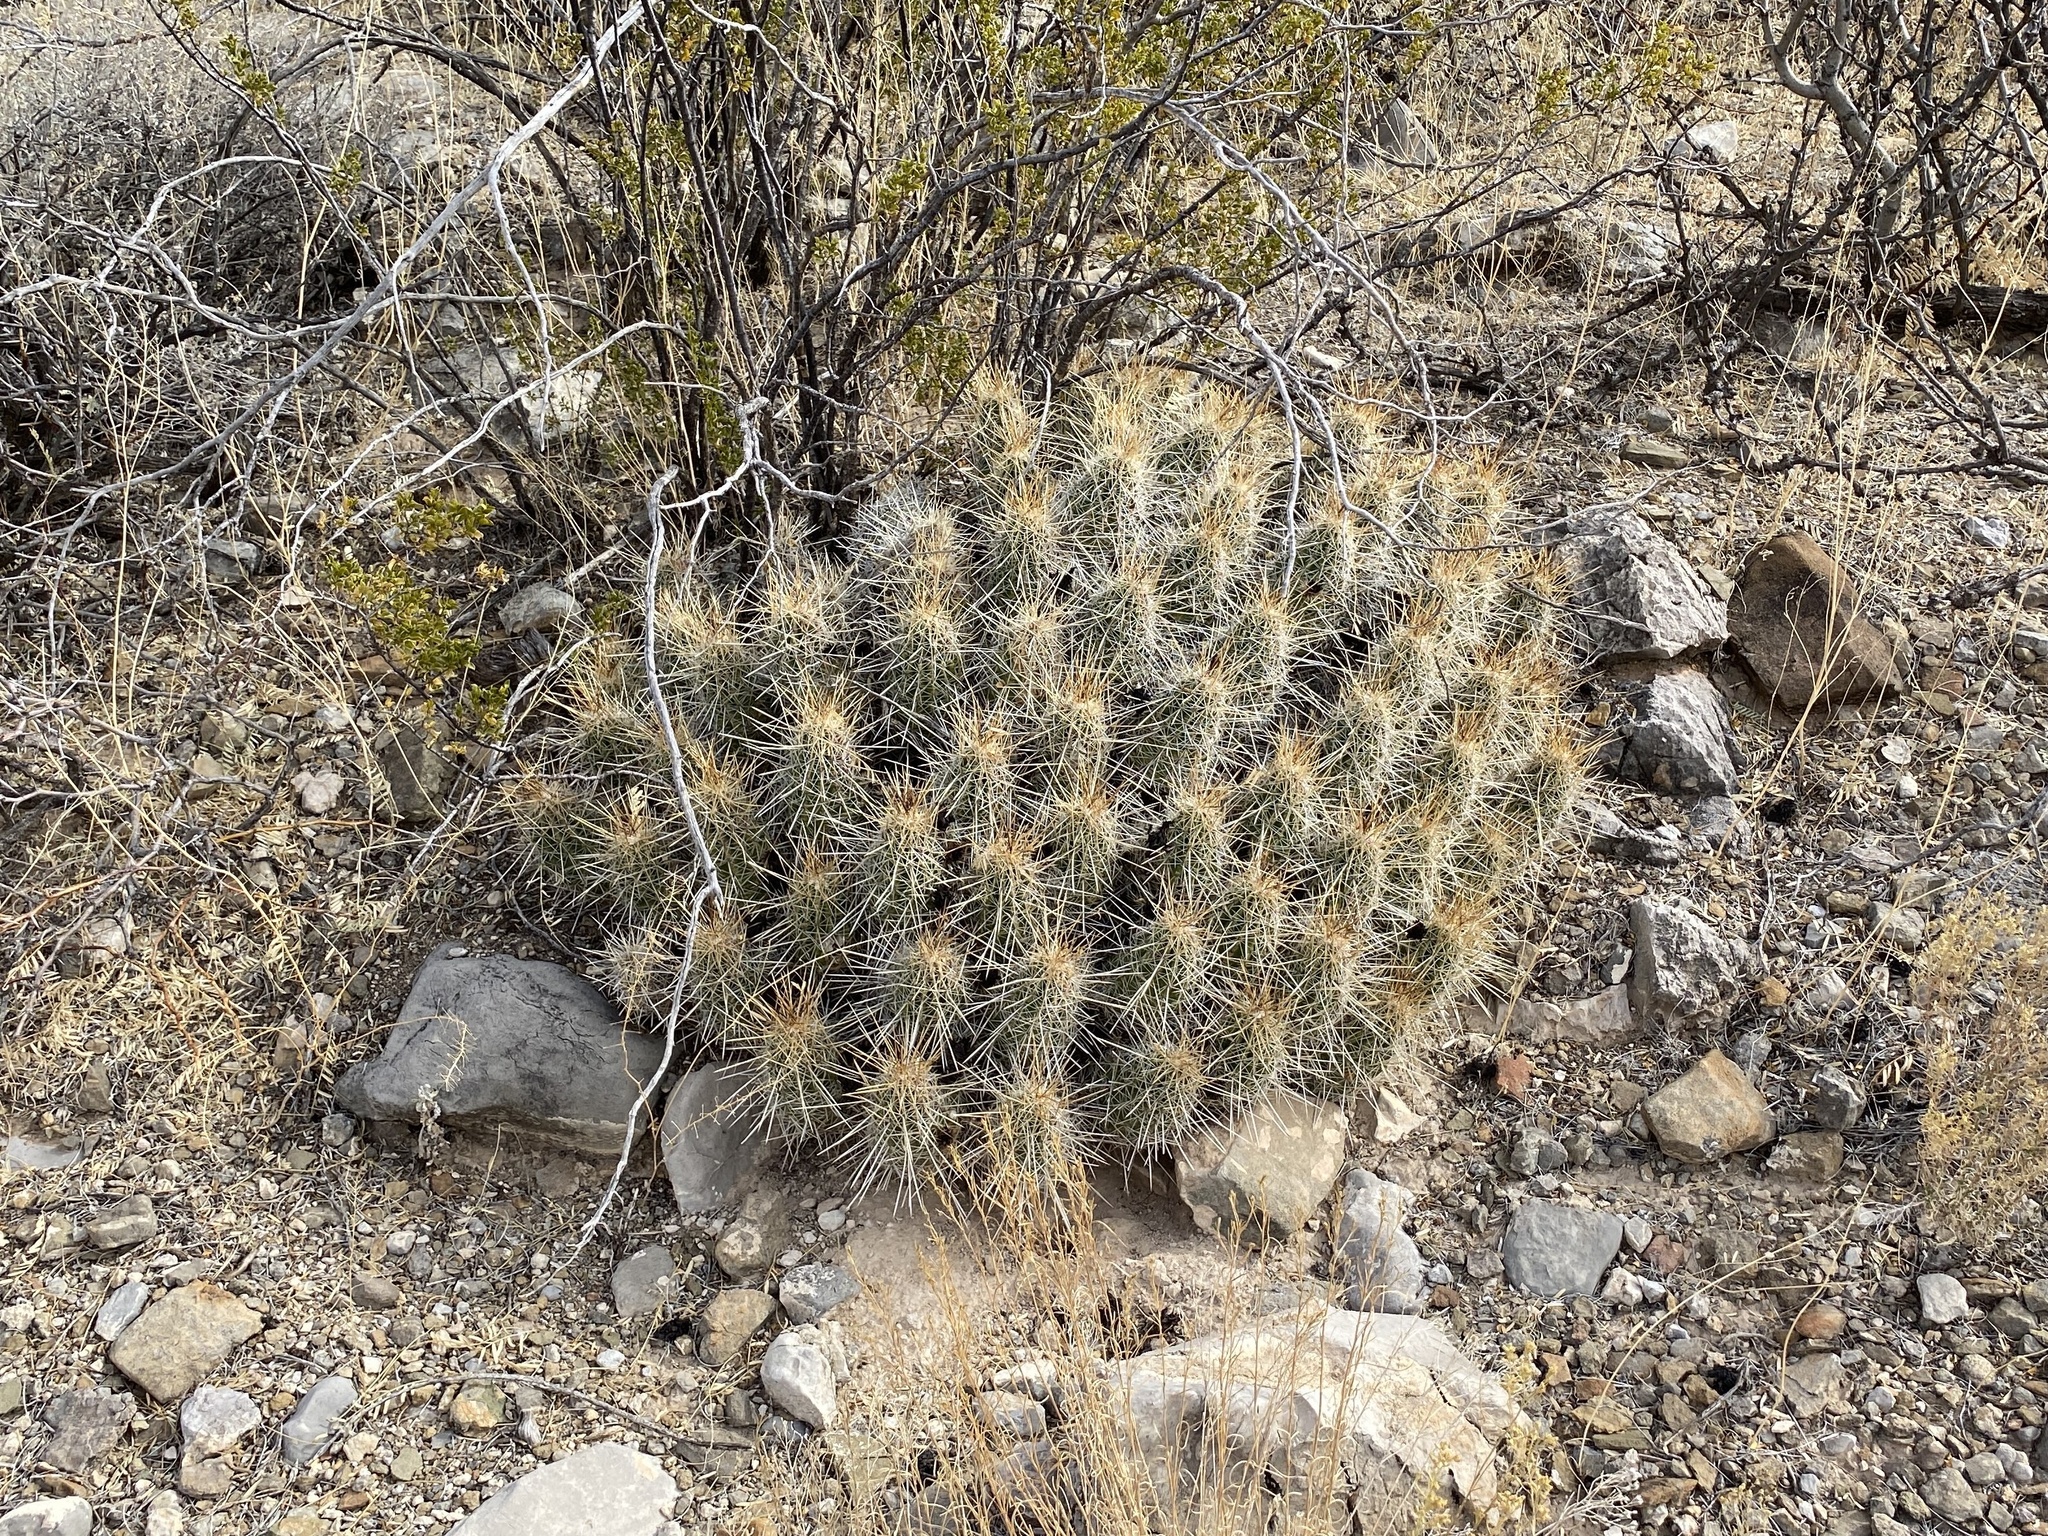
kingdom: Plantae
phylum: Tracheophyta
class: Magnoliopsida
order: Caryophyllales
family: Cactaceae
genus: Echinocereus
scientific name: Echinocereus stramineus
